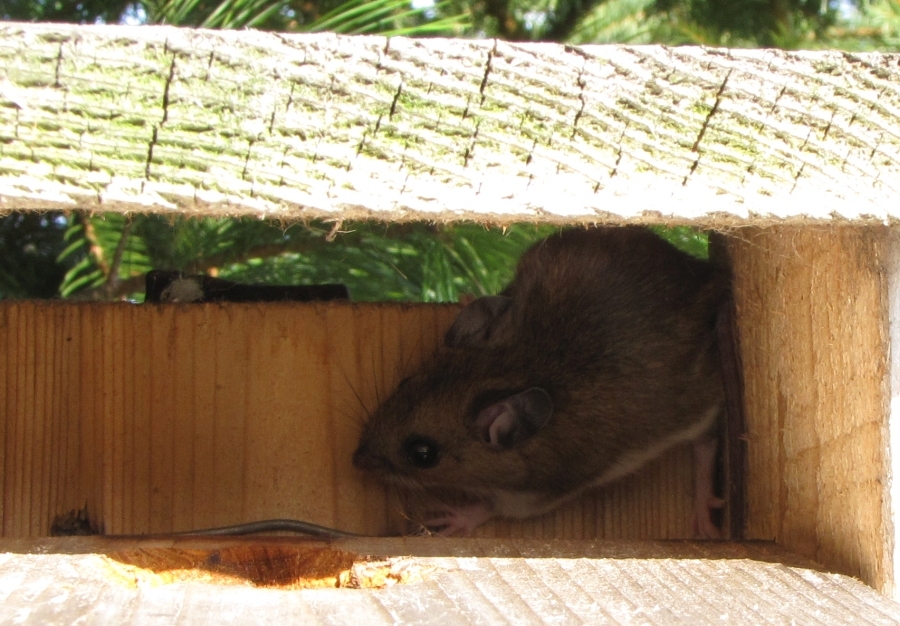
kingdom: Animalia
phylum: Chordata
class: Mammalia
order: Rodentia
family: Cricetidae
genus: Peromyscus
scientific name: Peromyscus
